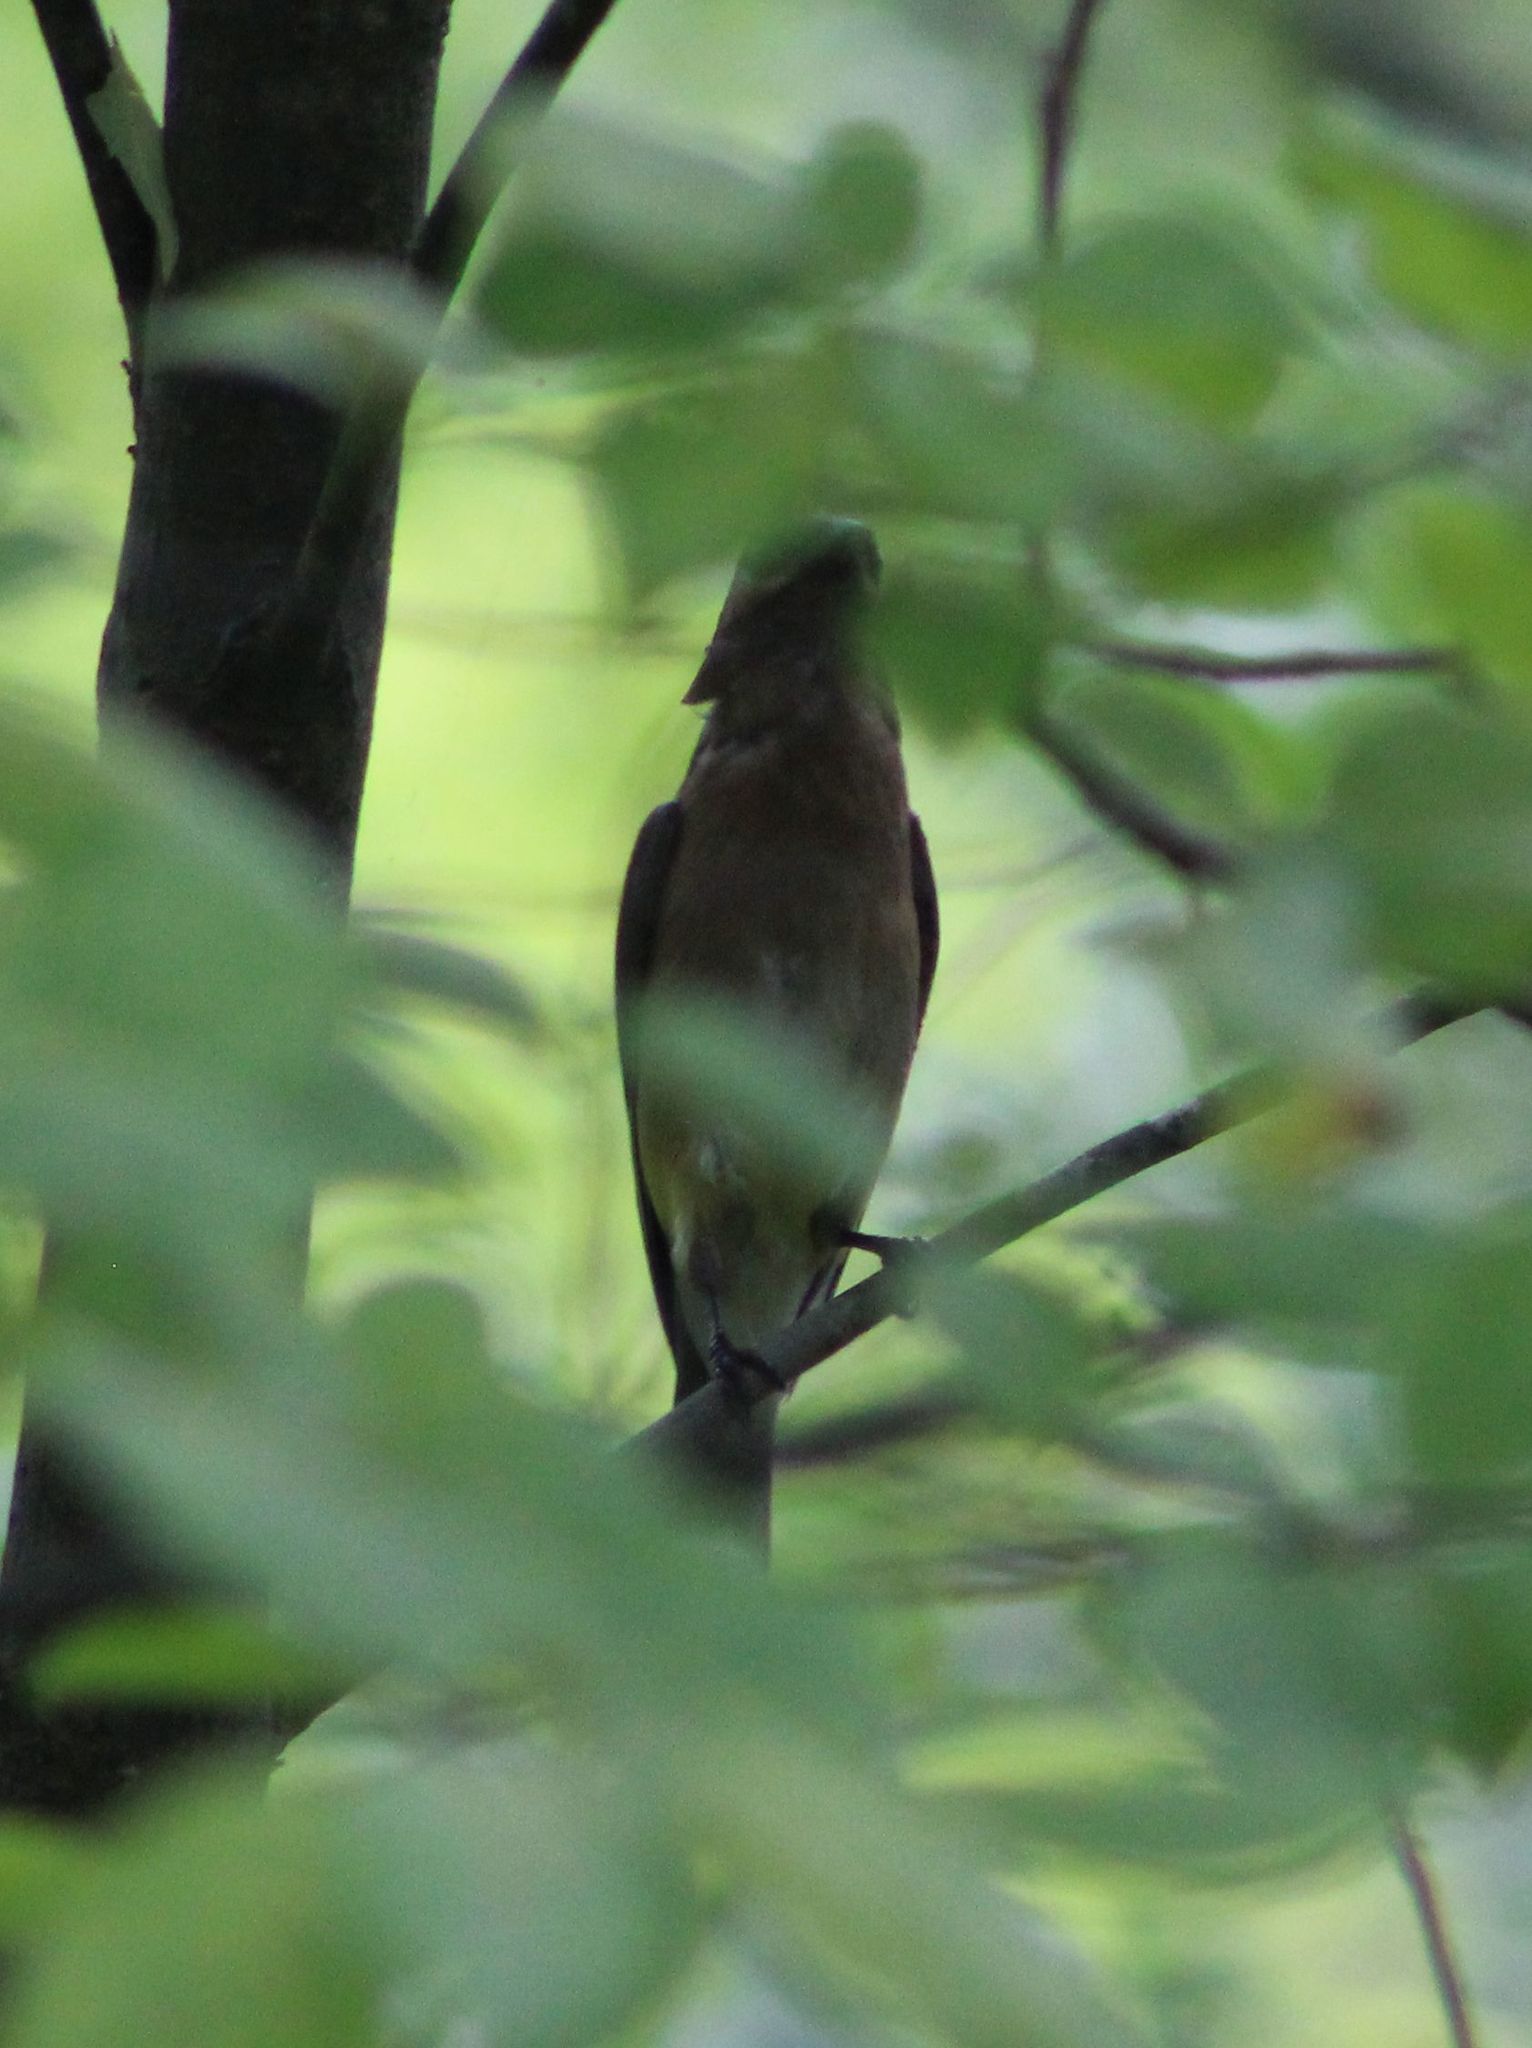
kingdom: Animalia
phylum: Chordata
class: Aves
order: Passeriformes
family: Bombycillidae
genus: Bombycilla
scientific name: Bombycilla cedrorum
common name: Cedar waxwing
